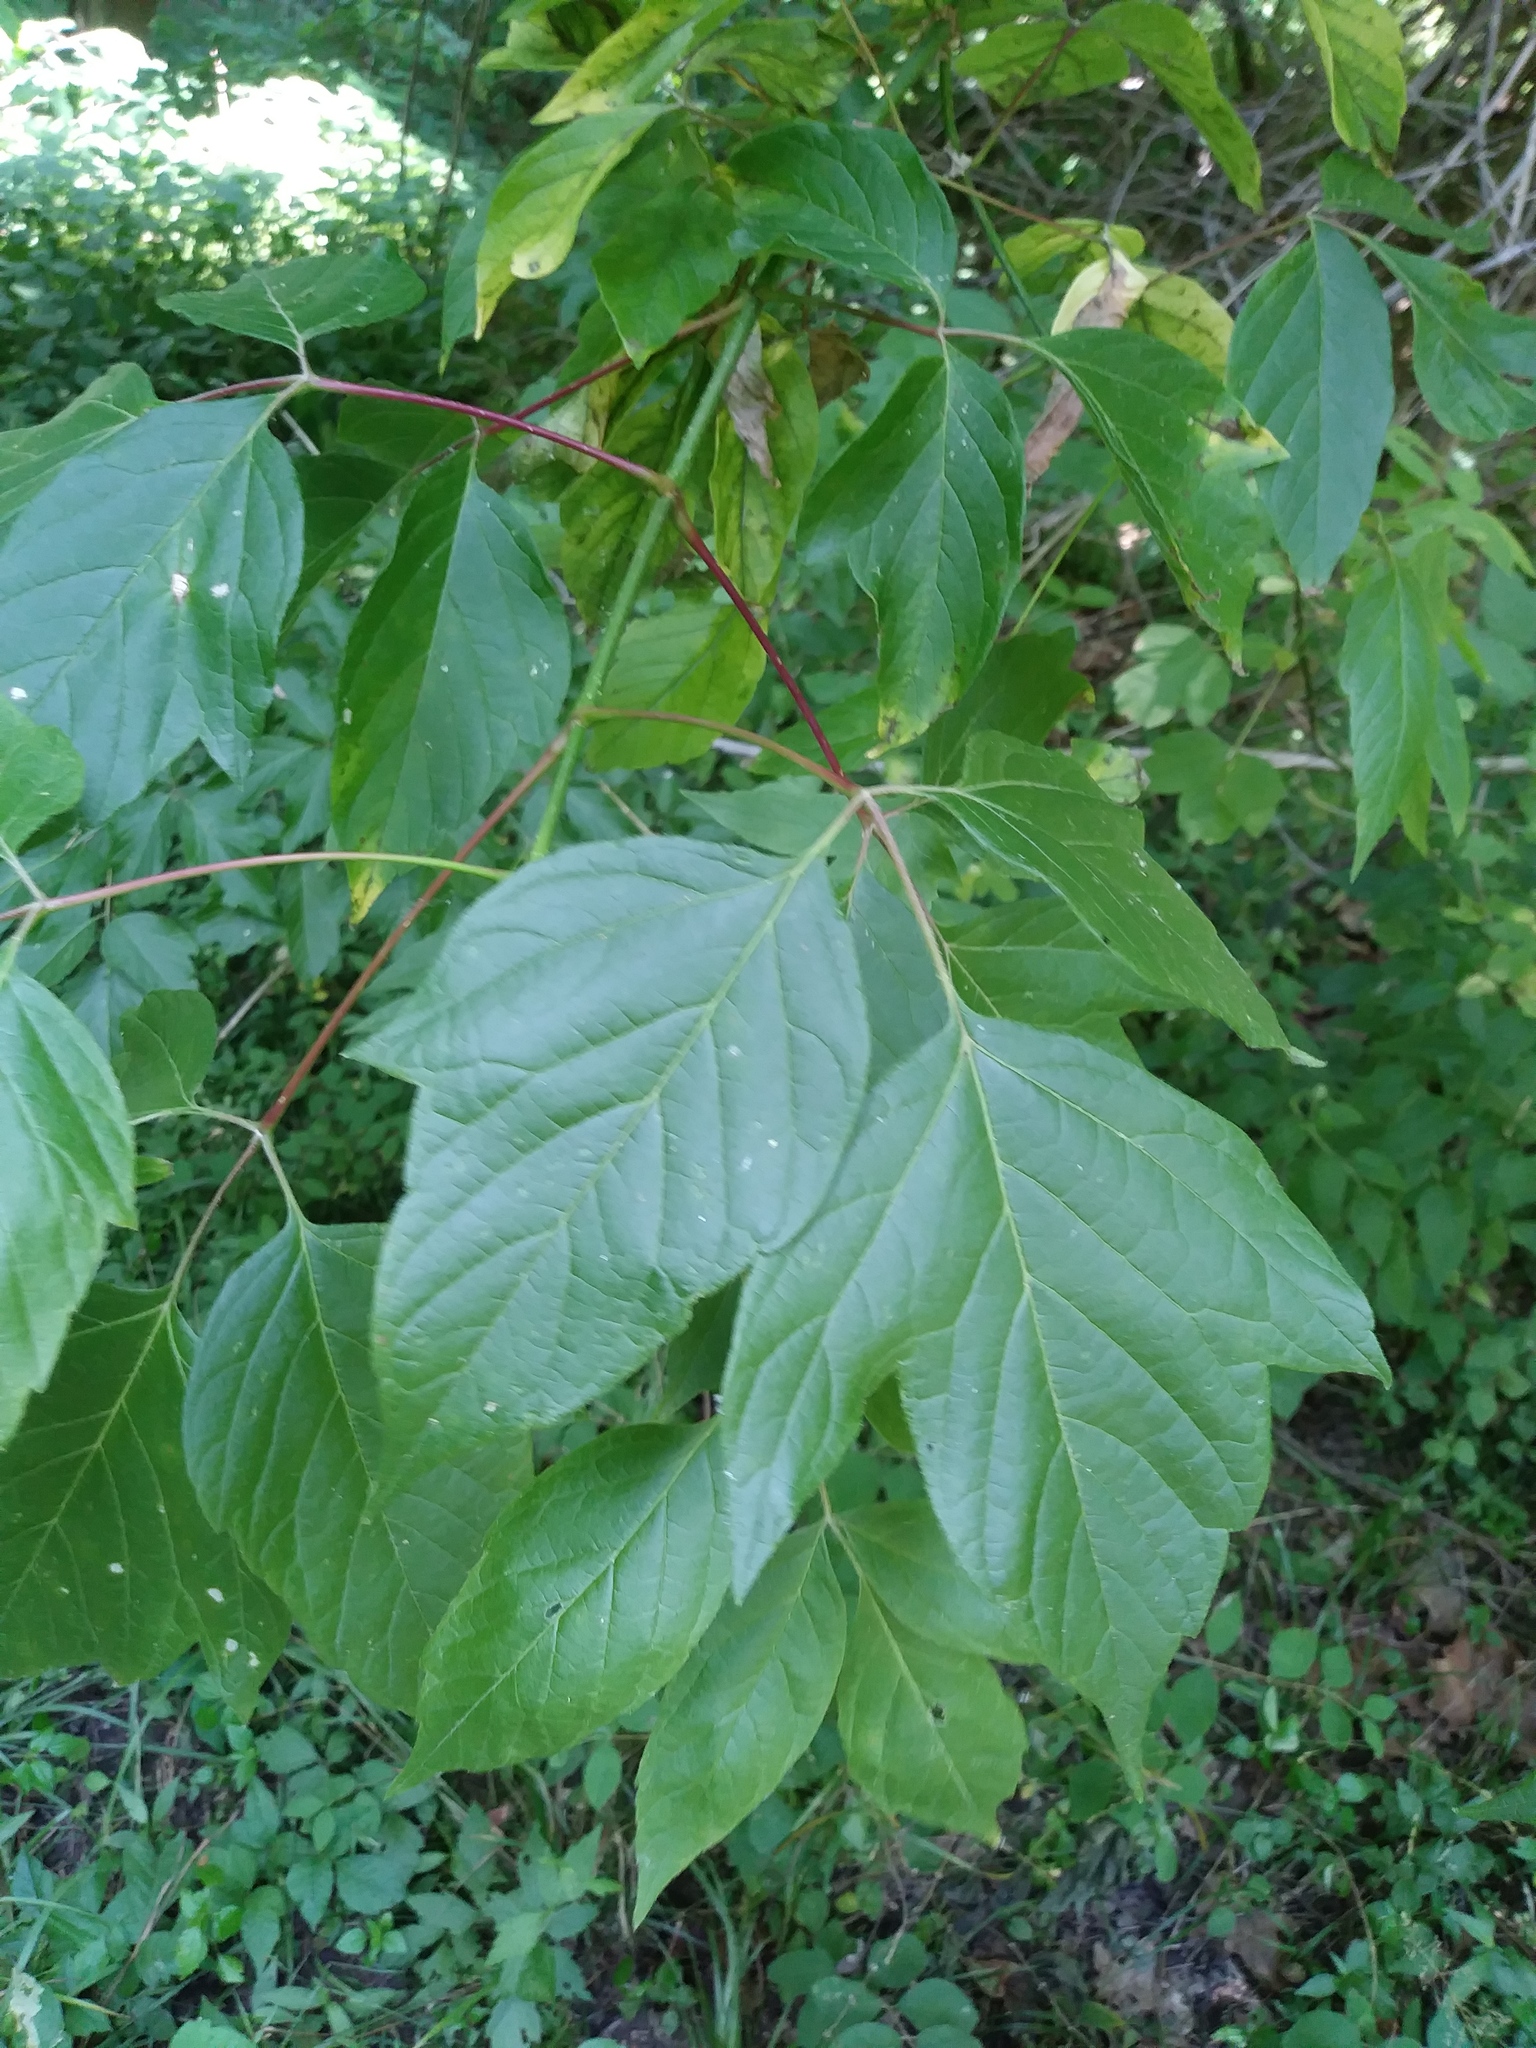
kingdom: Plantae
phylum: Tracheophyta
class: Magnoliopsida
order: Sapindales
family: Sapindaceae
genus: Acer
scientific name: Acer negundo
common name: Ashleaf maple
